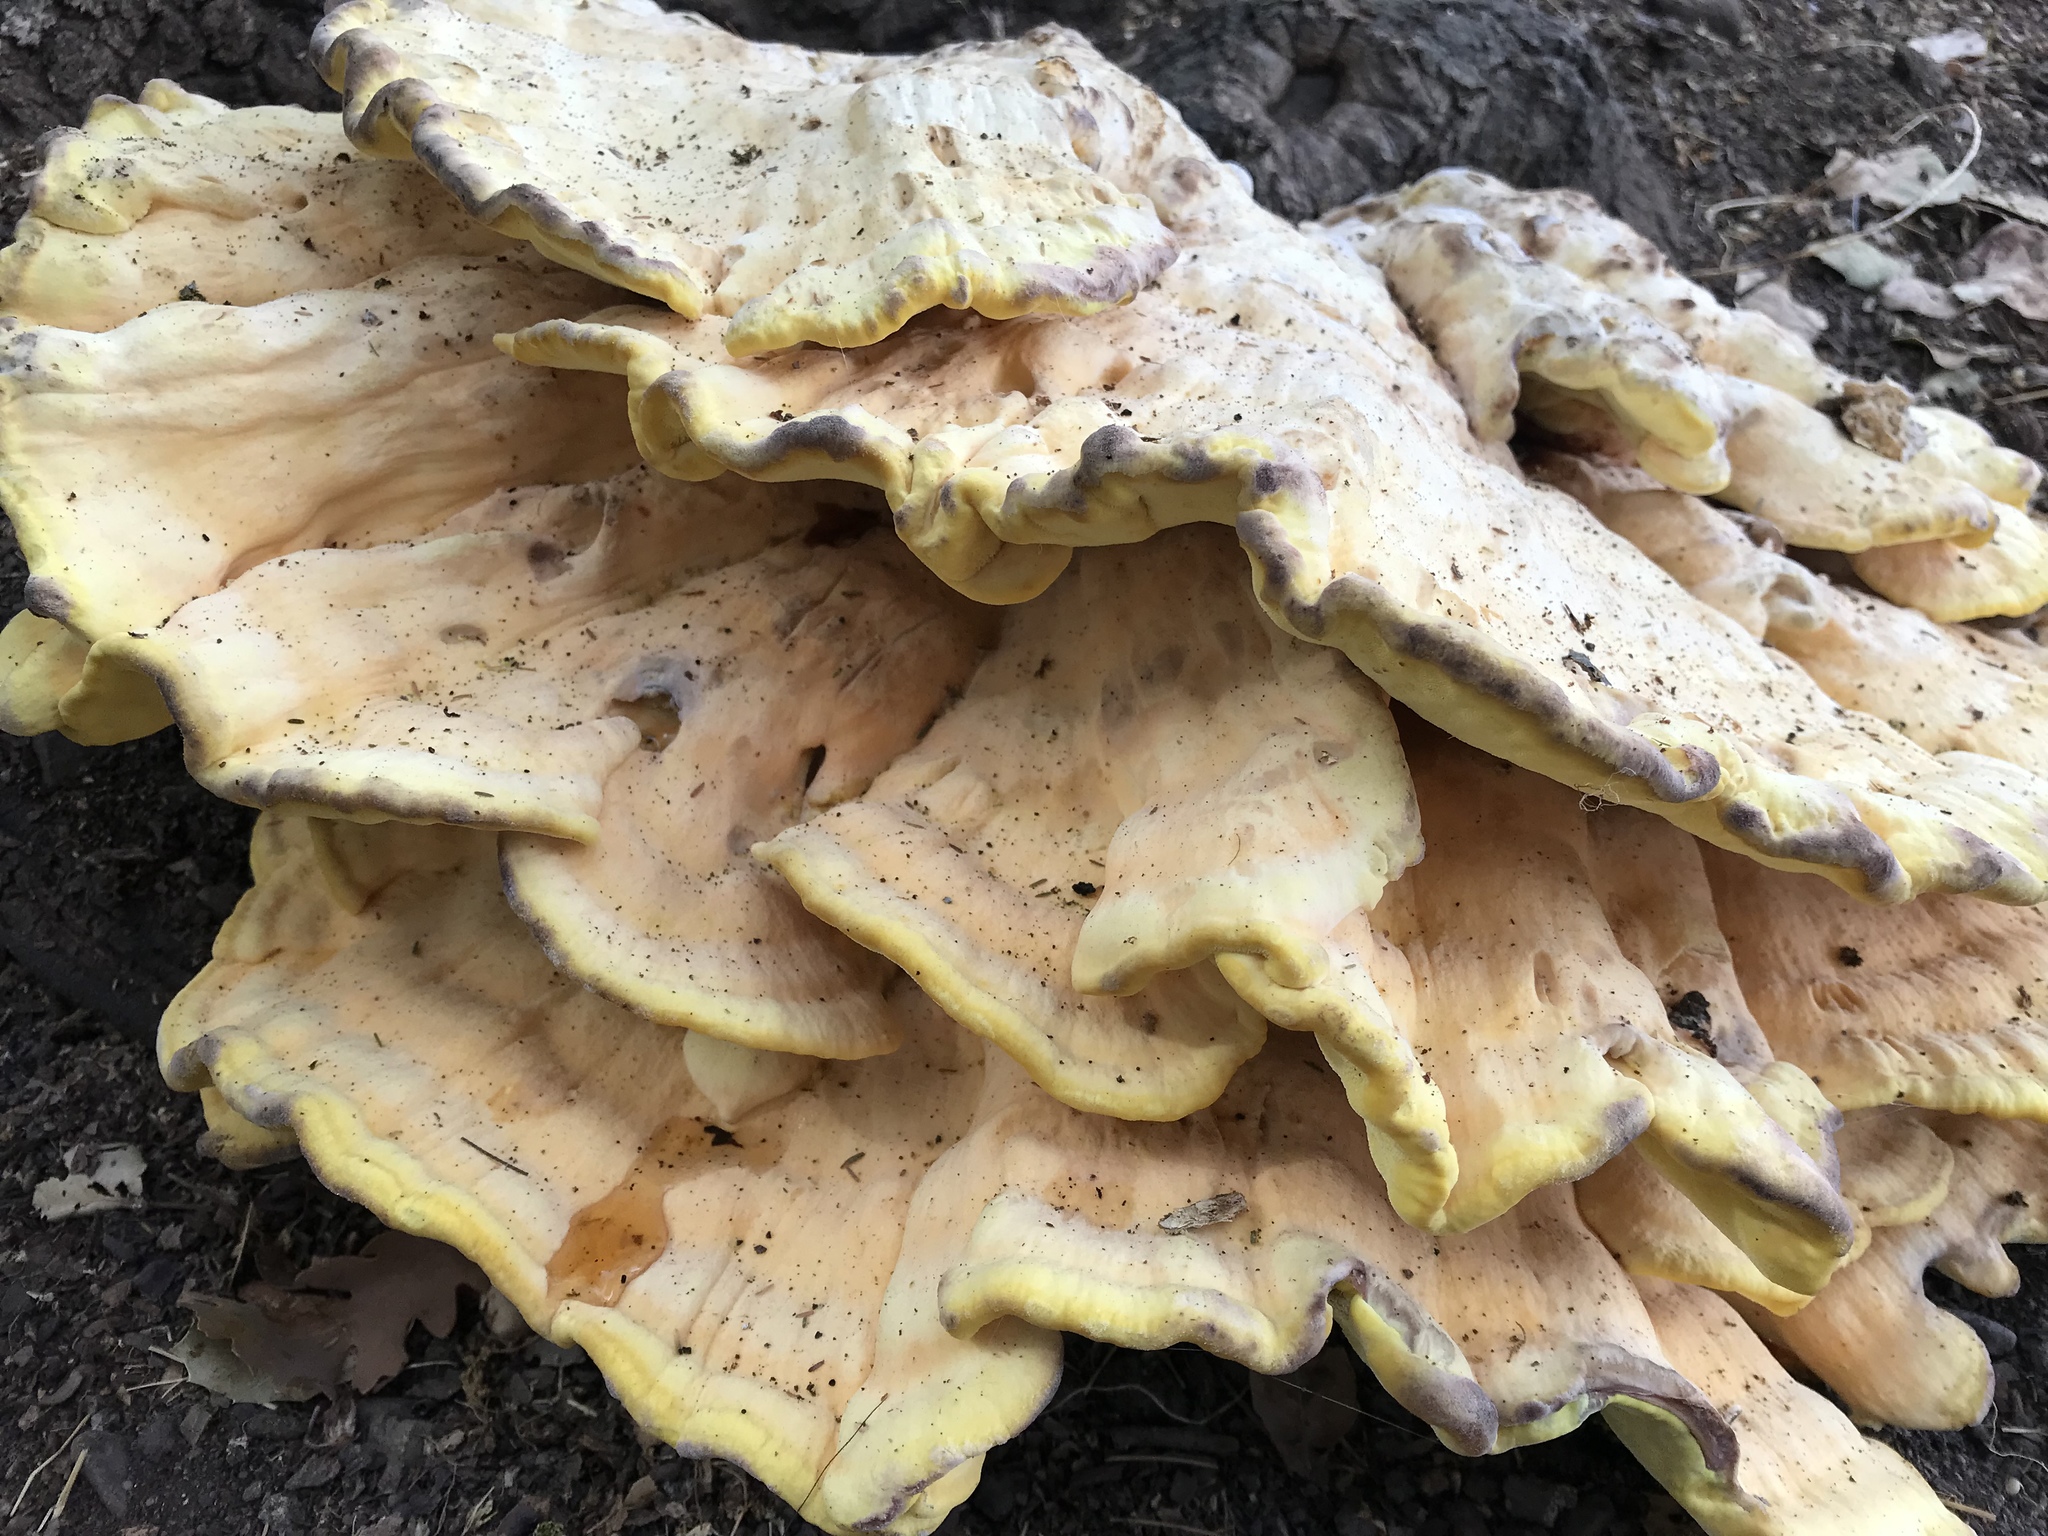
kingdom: Fungi
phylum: Basidiomycota
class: Agaricomycetes
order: Polyporales
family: Laetiporaceae
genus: Laetiporus
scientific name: Laetiporus gilbertsonii
